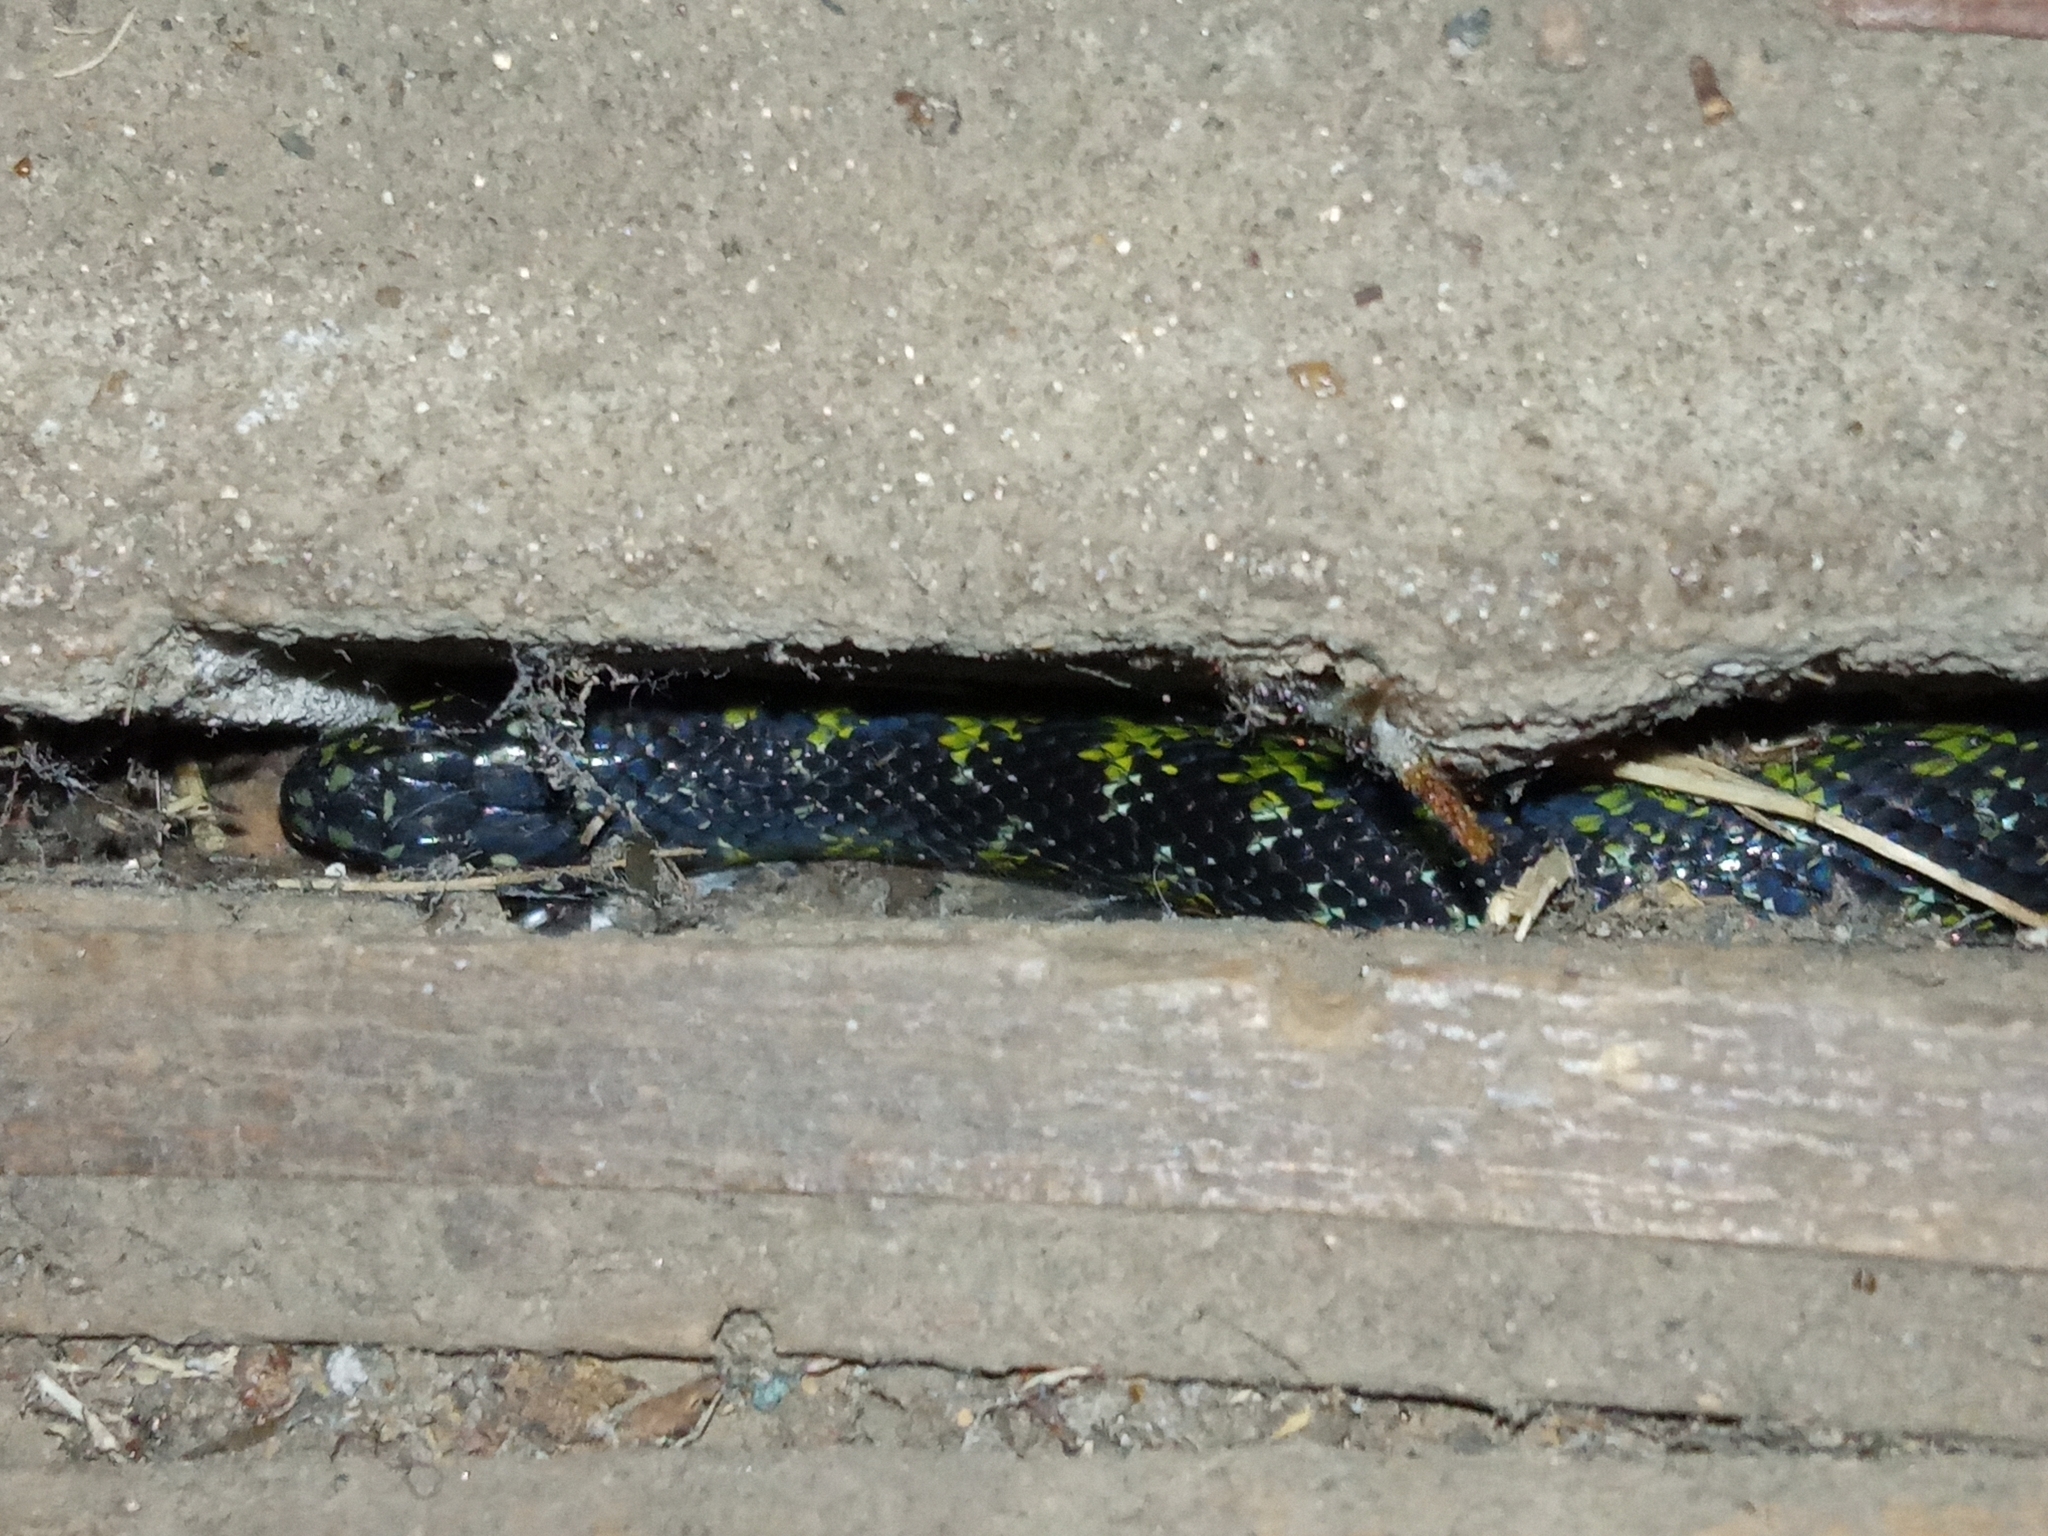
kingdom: Animalia
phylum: Chordata
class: Squamata
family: Colubridae
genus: Erythrolamprus
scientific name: Erythrolamprus poecilogyrus
